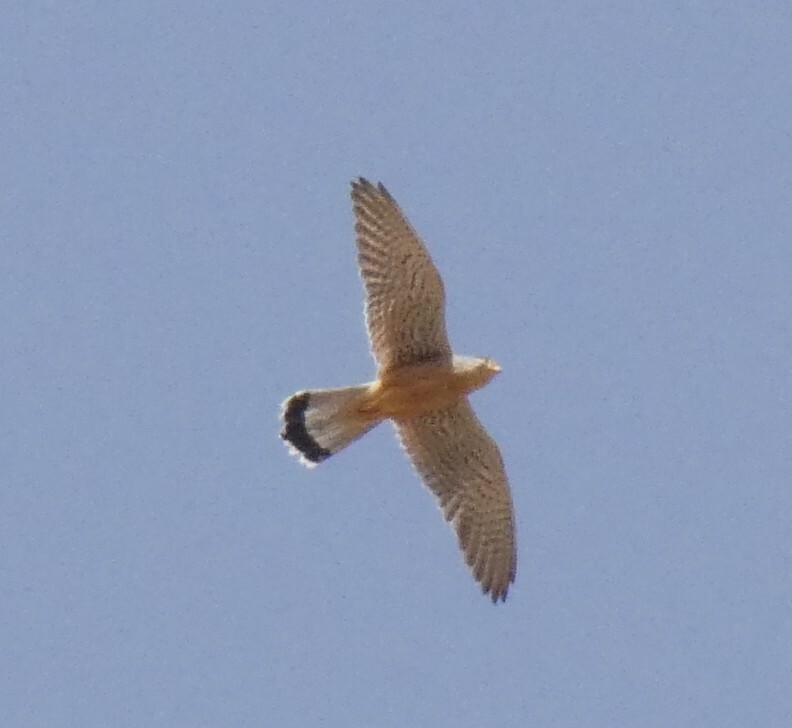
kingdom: Animalia
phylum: Chordata
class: Aves
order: Falconiformes
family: Falconidae
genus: Falco
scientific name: Falco tinnunculus
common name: Common kestrel
